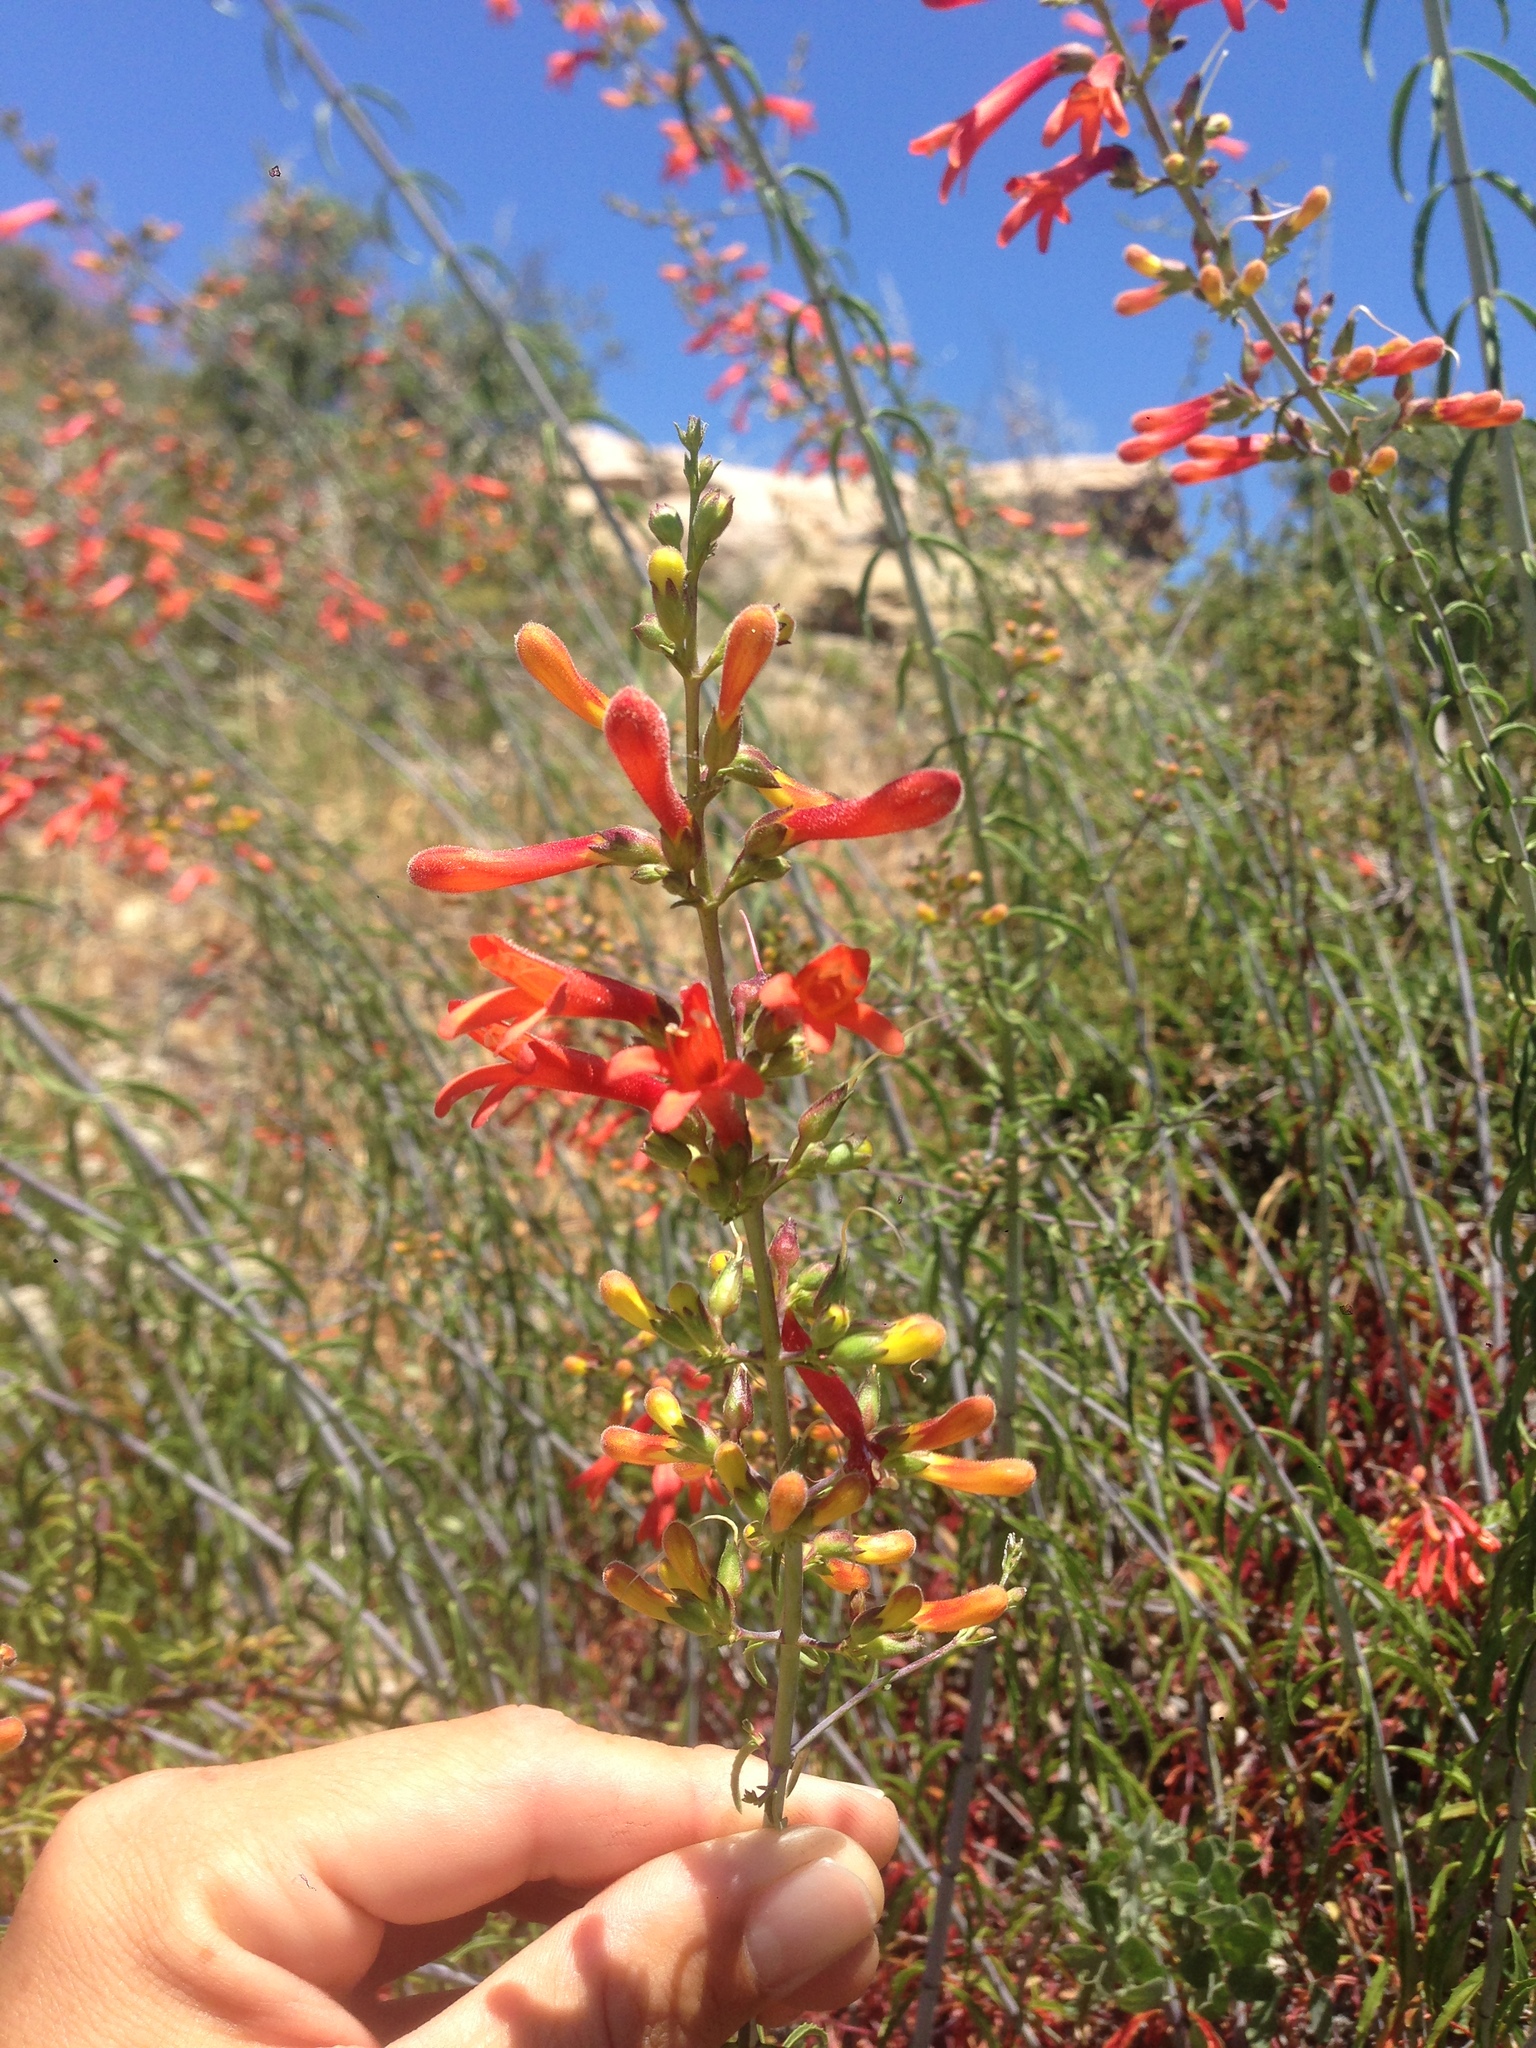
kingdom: Plantae
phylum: Tracheophyta
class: Magnoliopsida
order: Lamiales
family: Plantaginaceae
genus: Keckiella
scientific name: Keckiella ternata
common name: Scarlet keckiella
